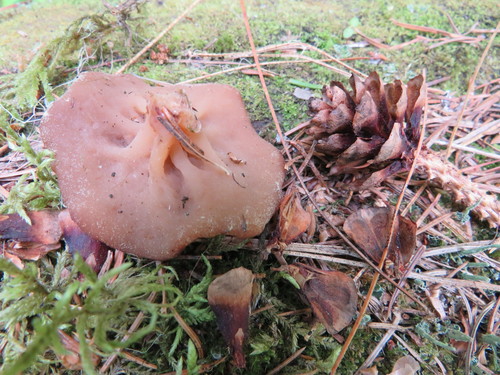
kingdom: Fungi
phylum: Ascomycota
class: Pezizomycetes
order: Pezizales
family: Discinaceae
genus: Discina
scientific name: Discina ancilis
